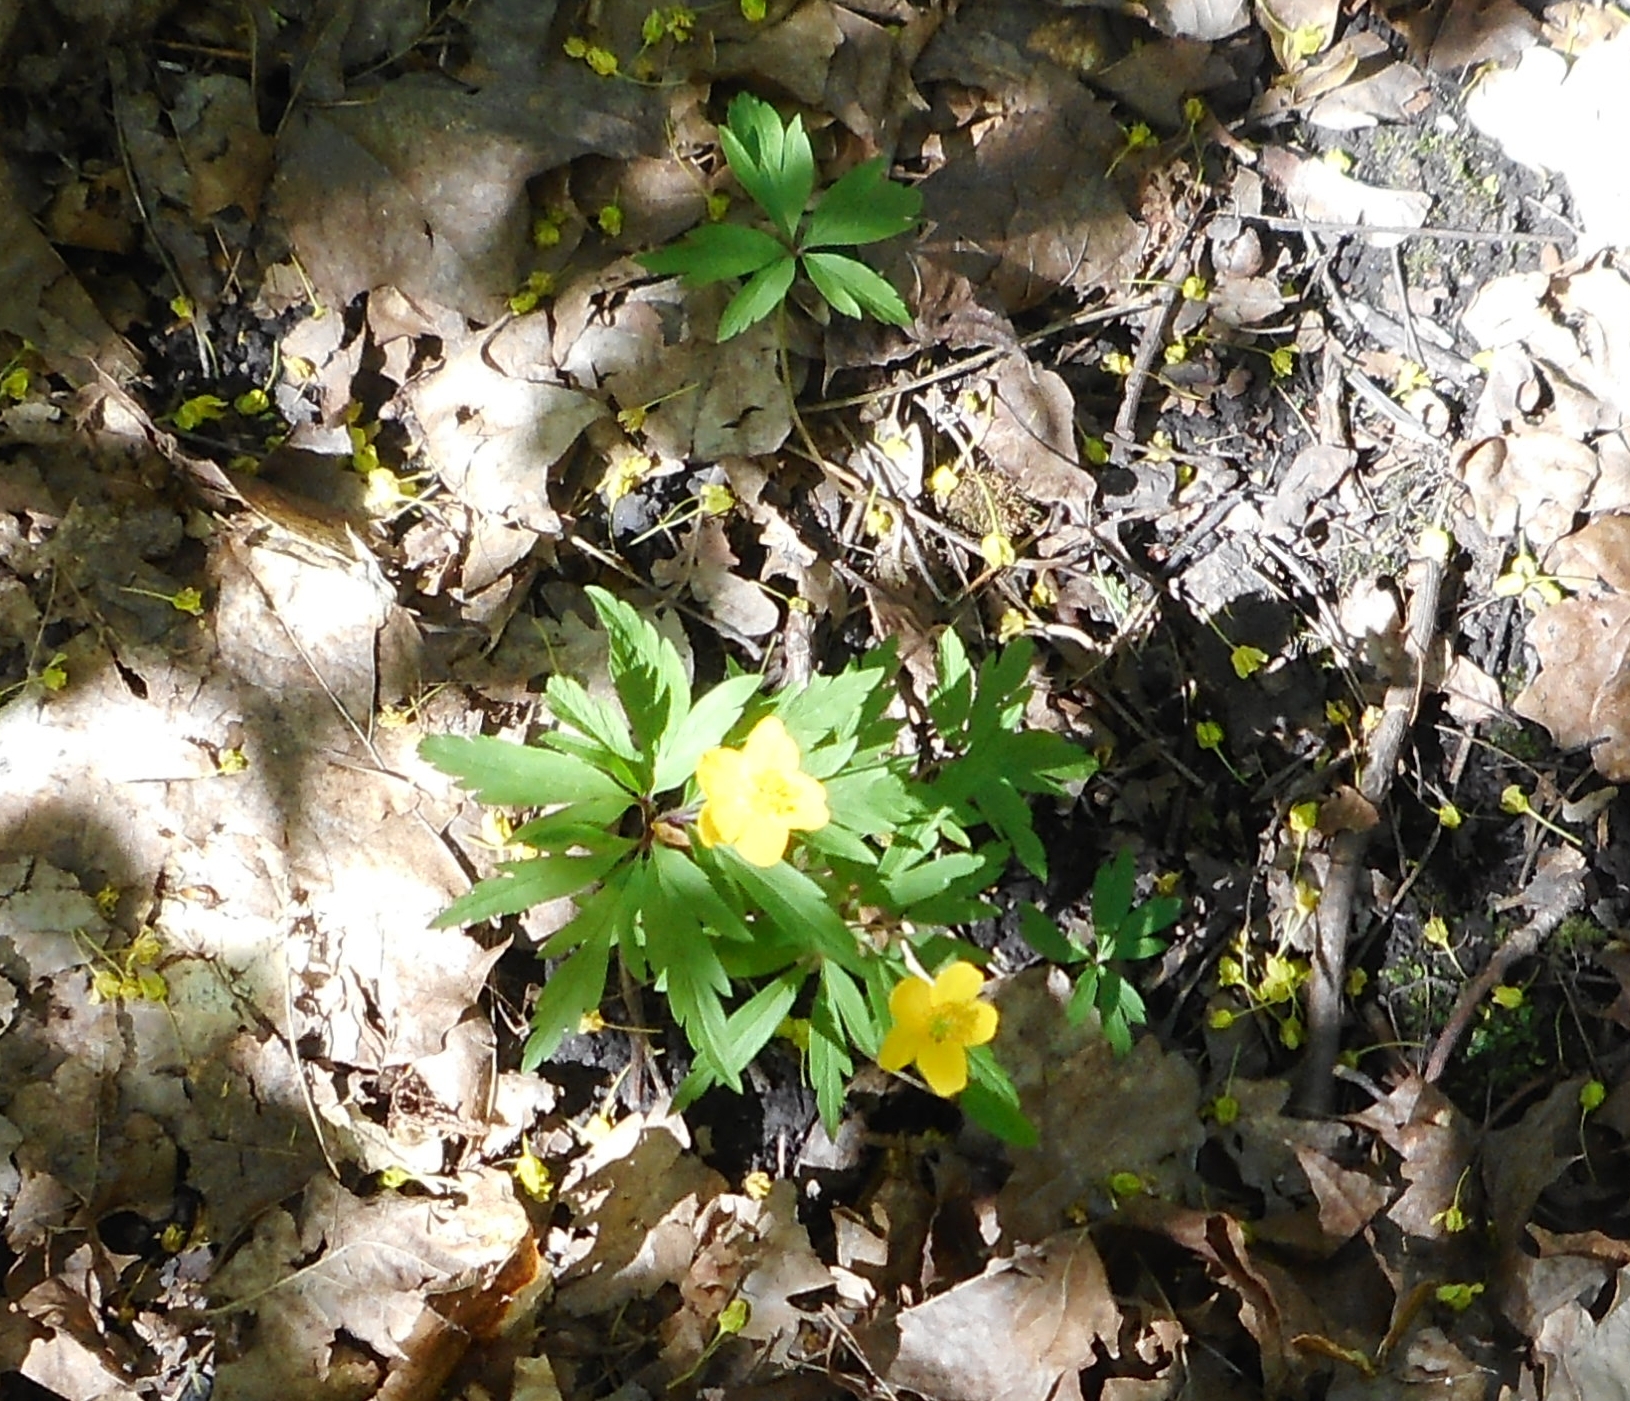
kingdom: Plantae
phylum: Tracheophyta
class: Magnoliopsida
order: Ranunculales
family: Ranunculaceae
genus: Anemone
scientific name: Anemone ranunculoides
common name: Yellow anemone
